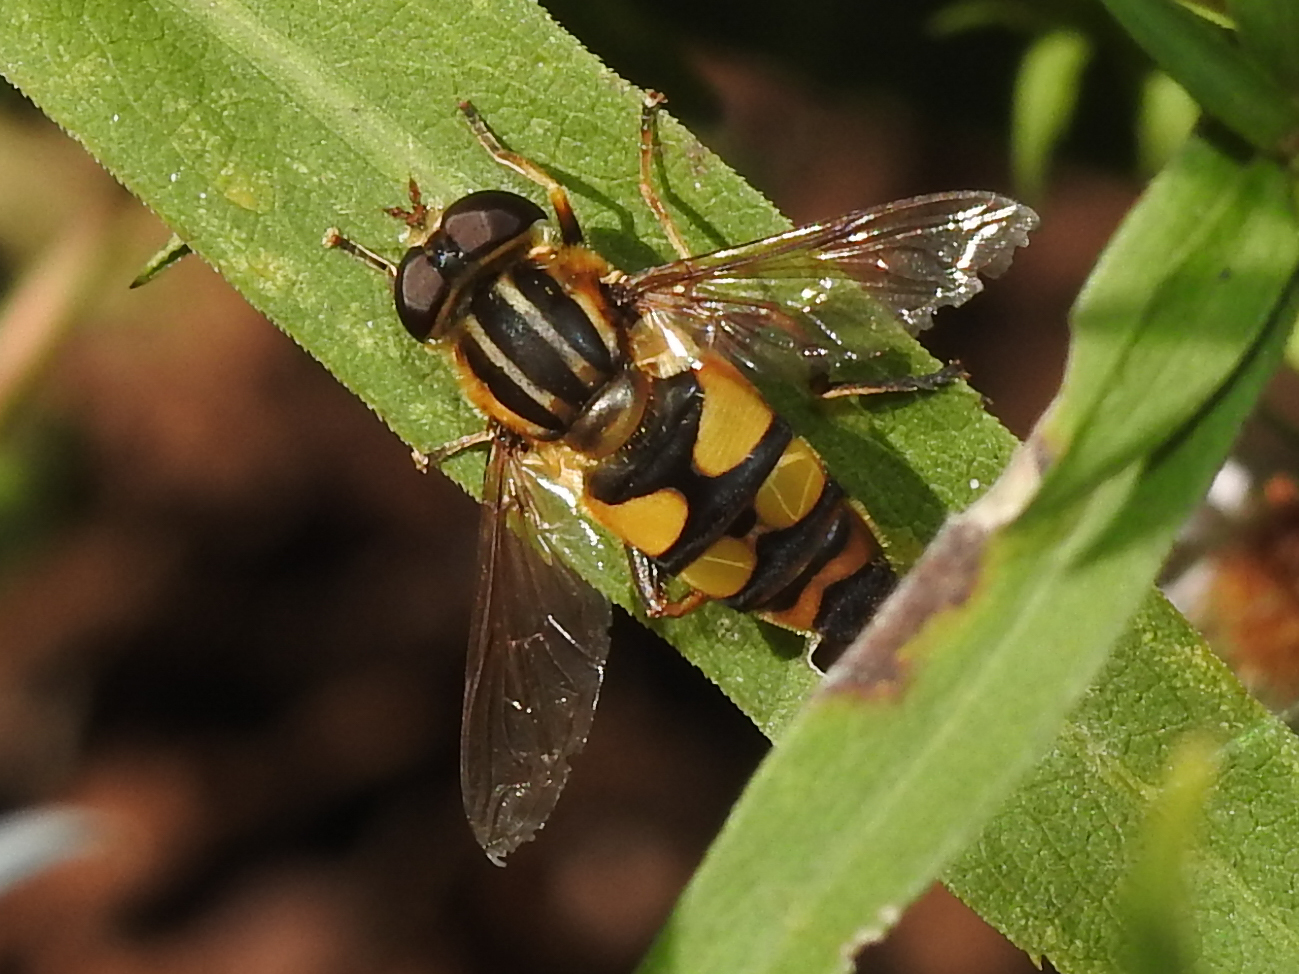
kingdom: Animalia
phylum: Arthropoda
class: Insecta
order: Diptera
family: Syrphidae
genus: Helophilus
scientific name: Helophilus fasciatus
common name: Narrow-headed marsh fly
